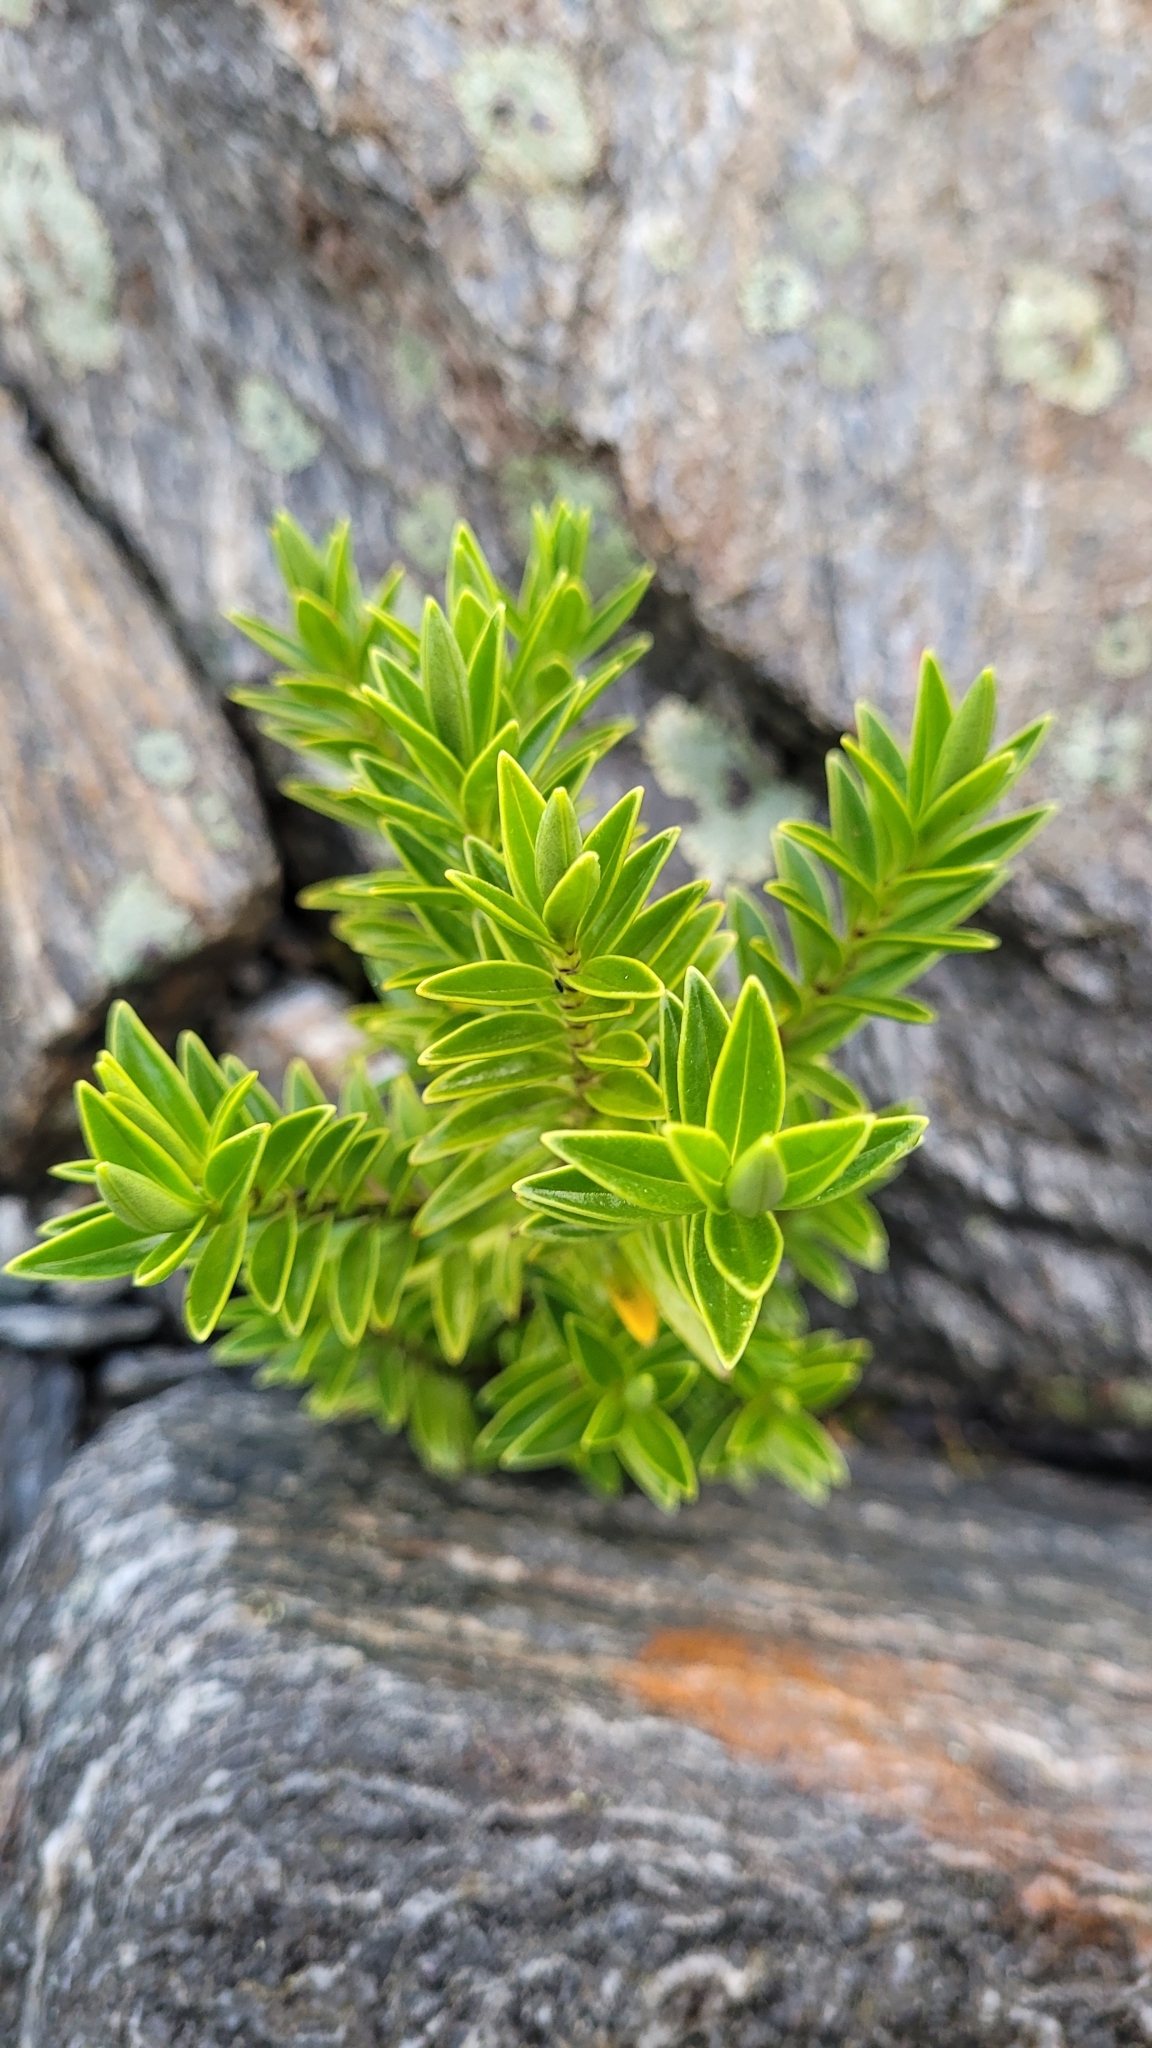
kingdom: Plantae
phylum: Tracheophyta
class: Magnoliopsida
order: Lamiales
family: Plantaginaceae
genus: Veronica
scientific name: Veronica subalpina
